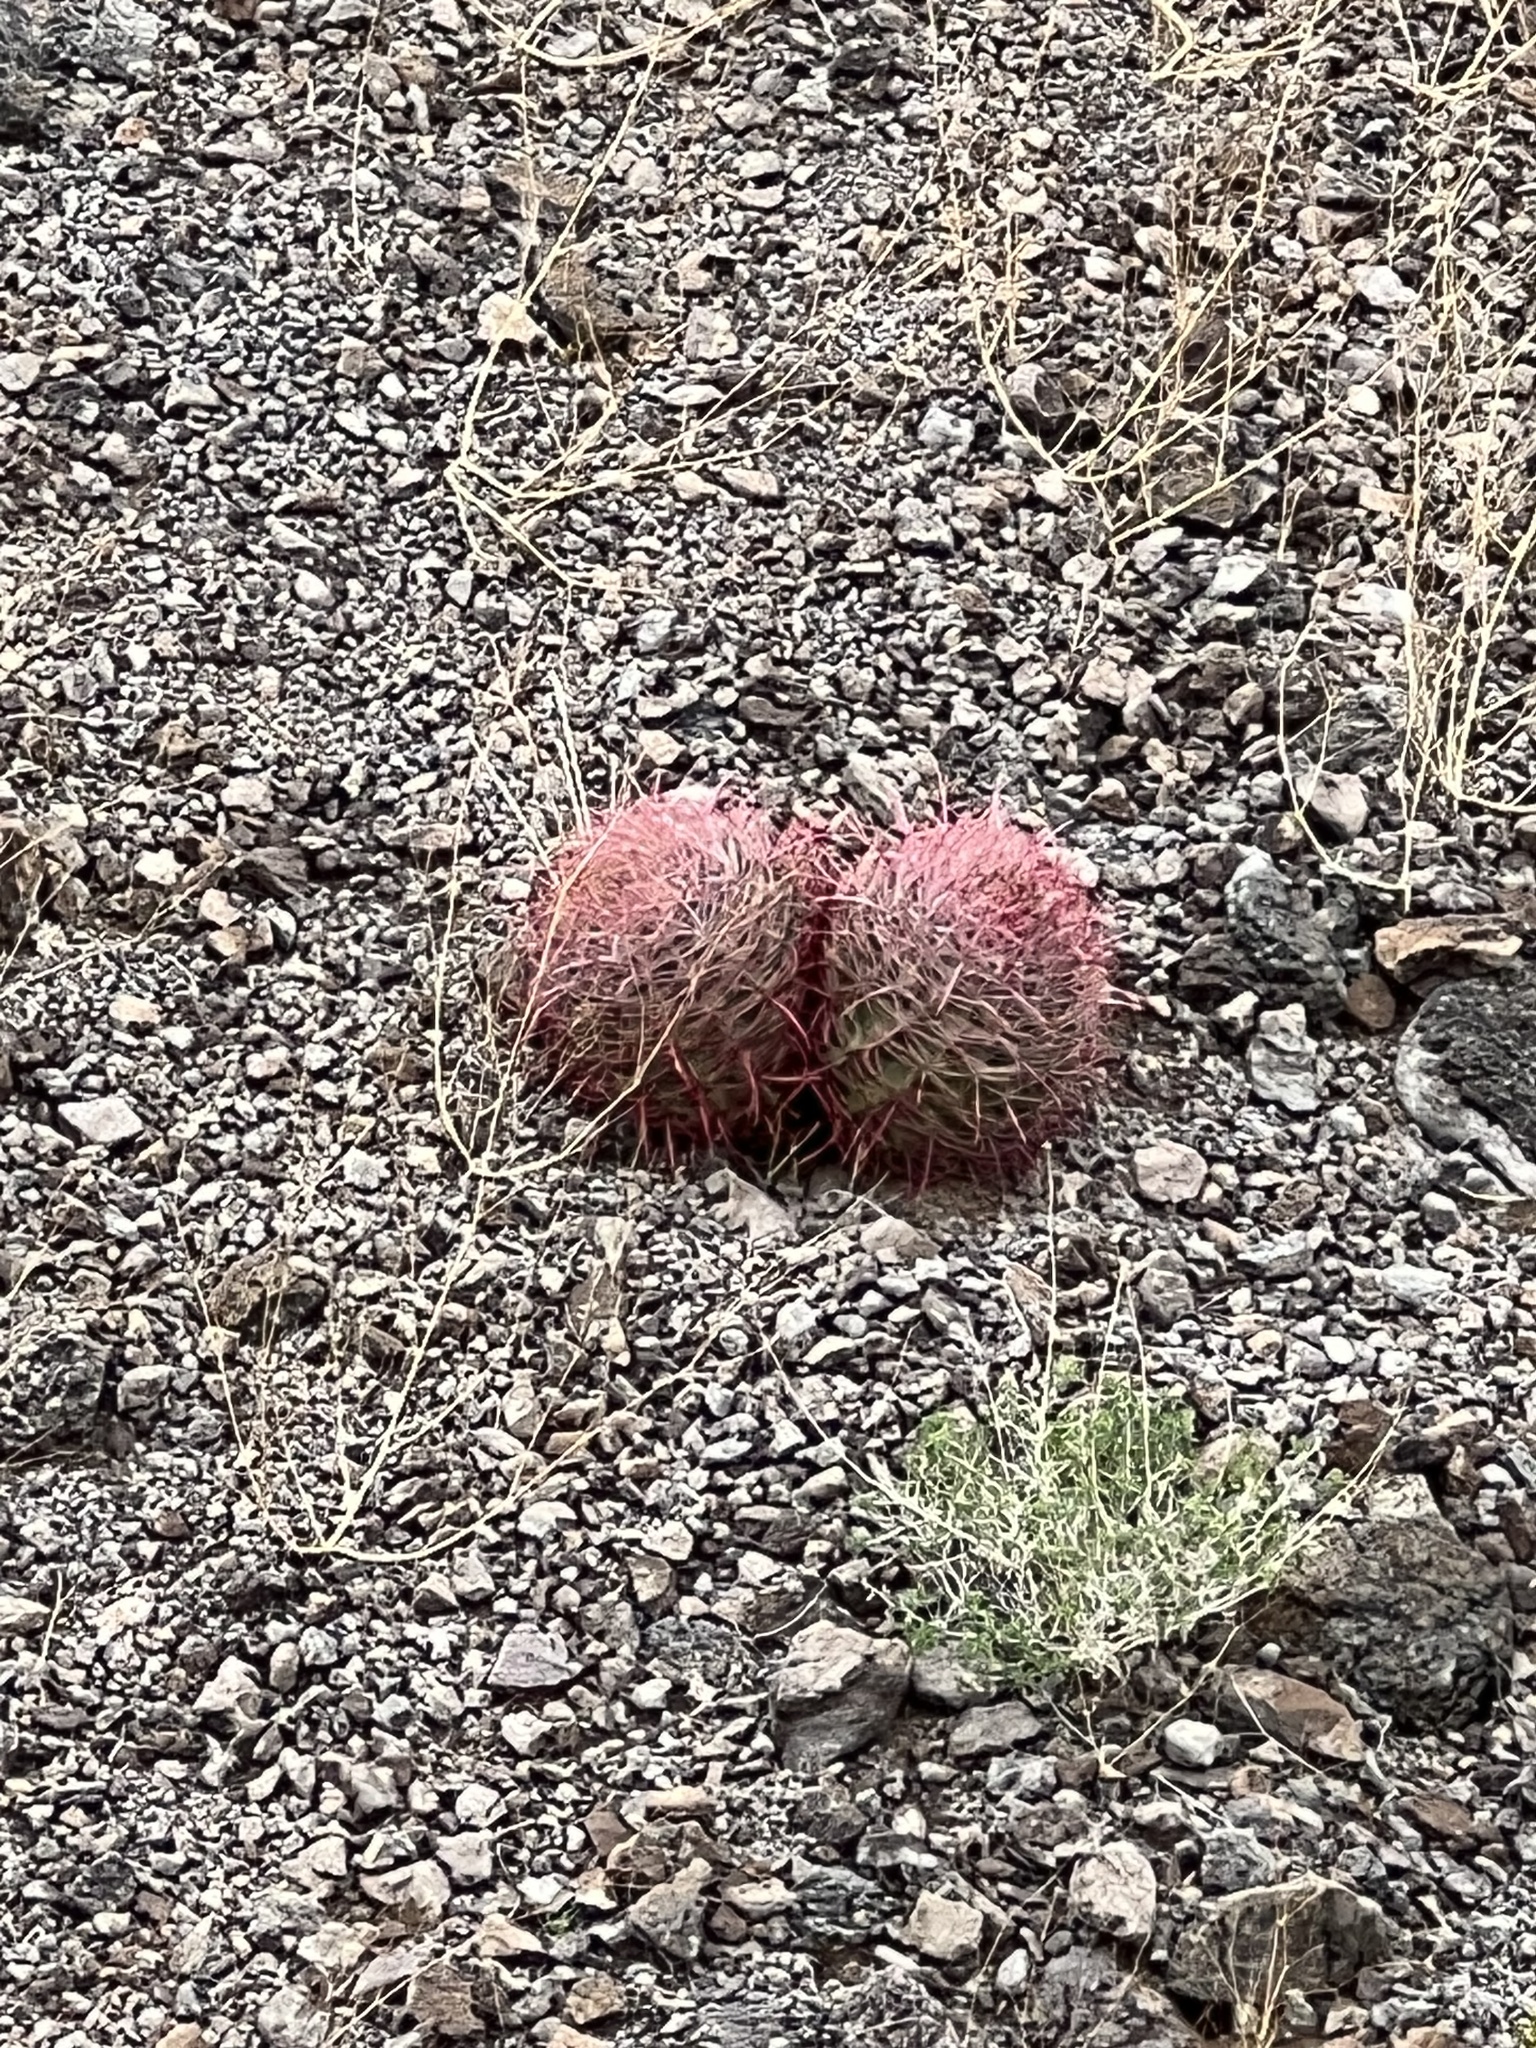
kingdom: Plantae
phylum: Tracheophyta
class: Magnoliopsida
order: Caryophyllales
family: Cactaceae
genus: Ferocactus
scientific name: Ferocactus cylindraceus
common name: California barrel cactus
